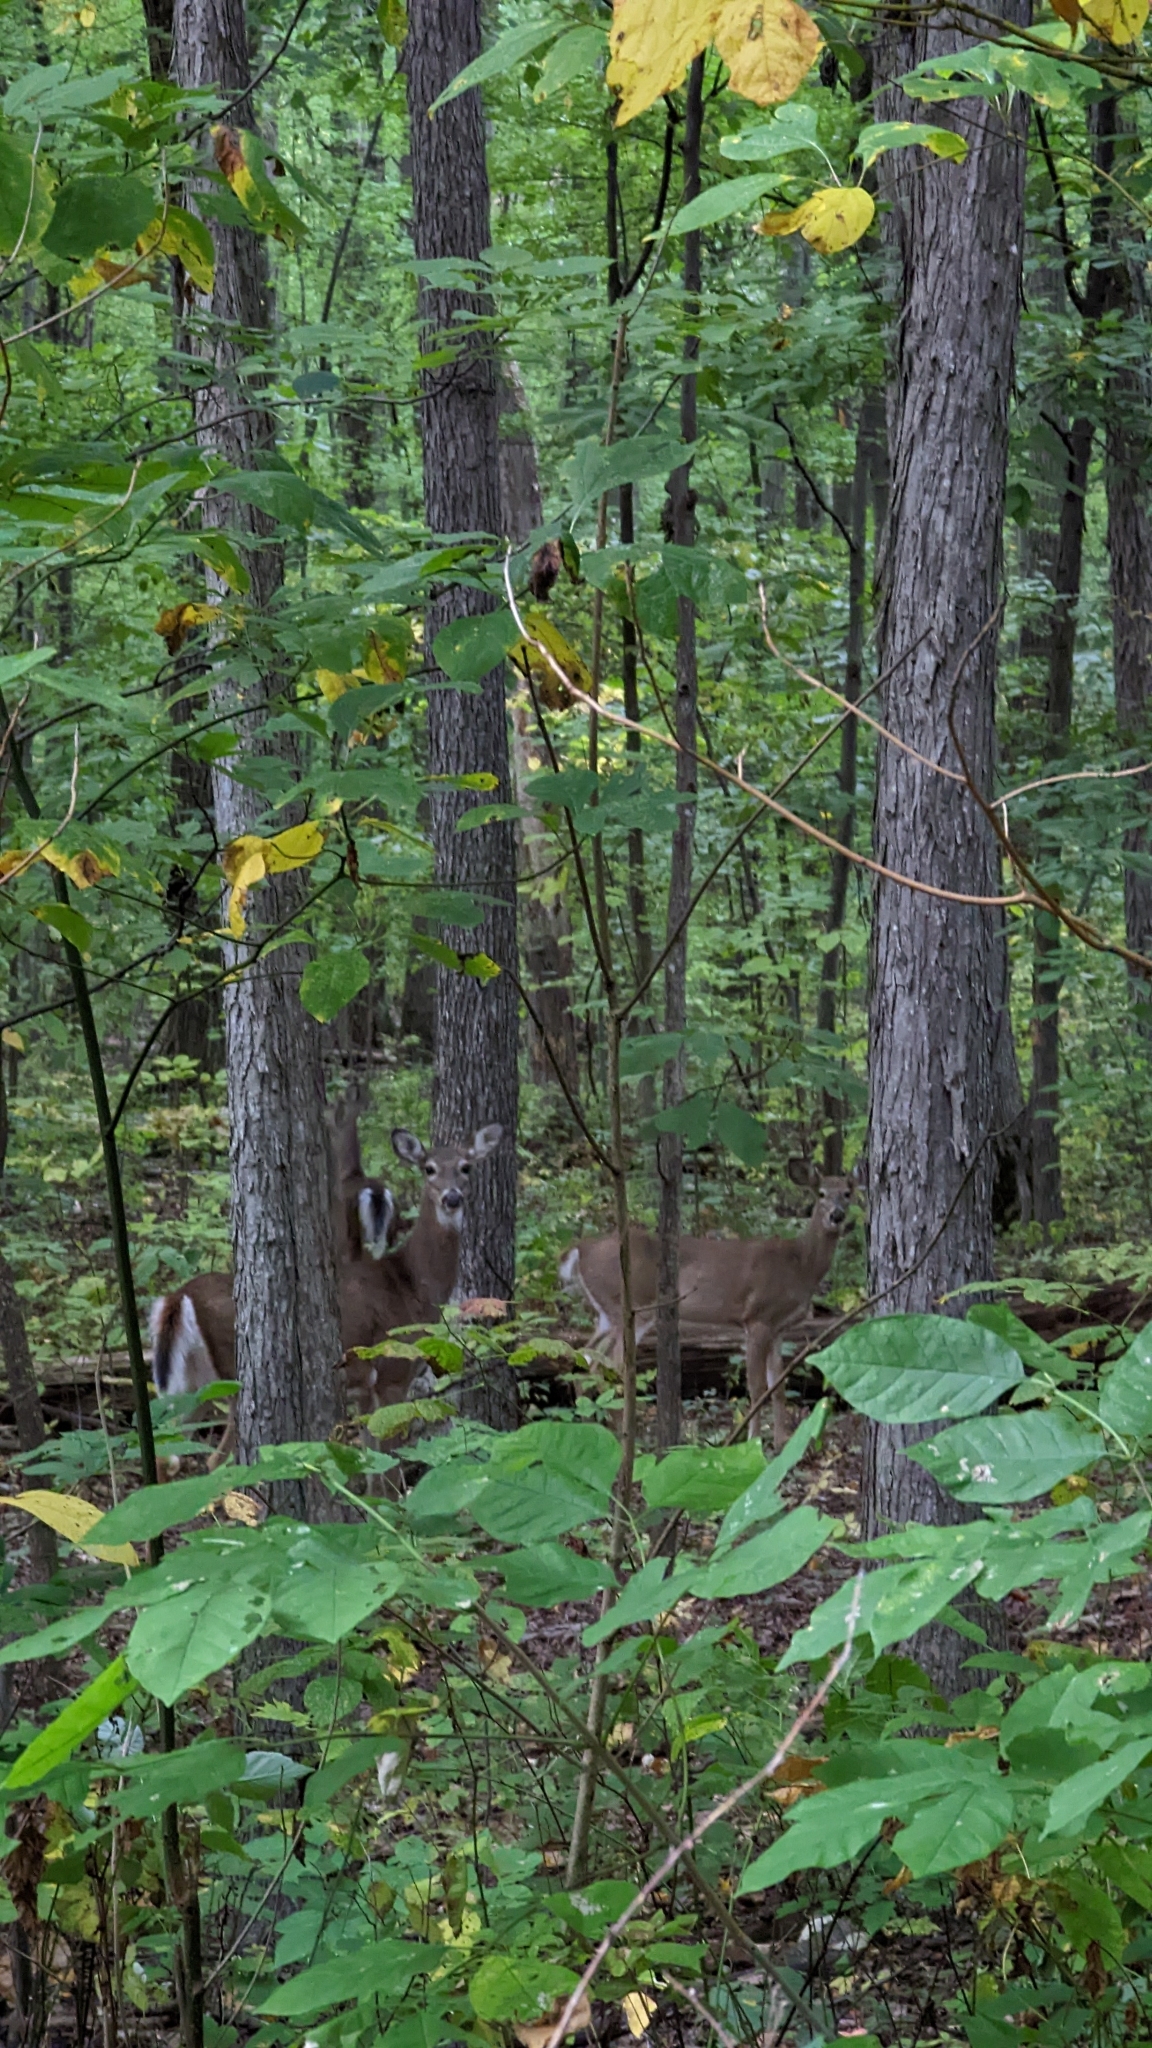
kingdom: Animalia
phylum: Chordata
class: Mammalia
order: Artiodactyla
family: Cervidae
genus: Odocoileus
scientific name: Odocoileus virginianus
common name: White-tailed deer
